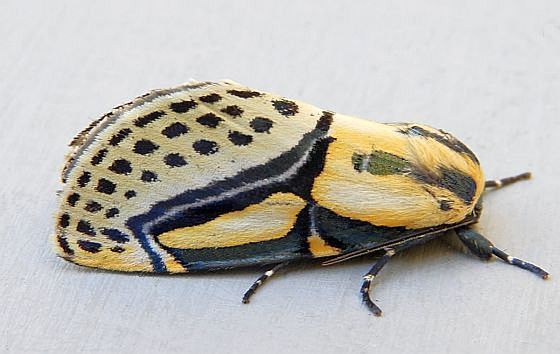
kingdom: Animalia
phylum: Arthropoda
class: Insecta
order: Lepidoptera
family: Erebidae
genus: Diphthera
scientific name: Diphthera festiva
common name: Hieroglyphic moth
